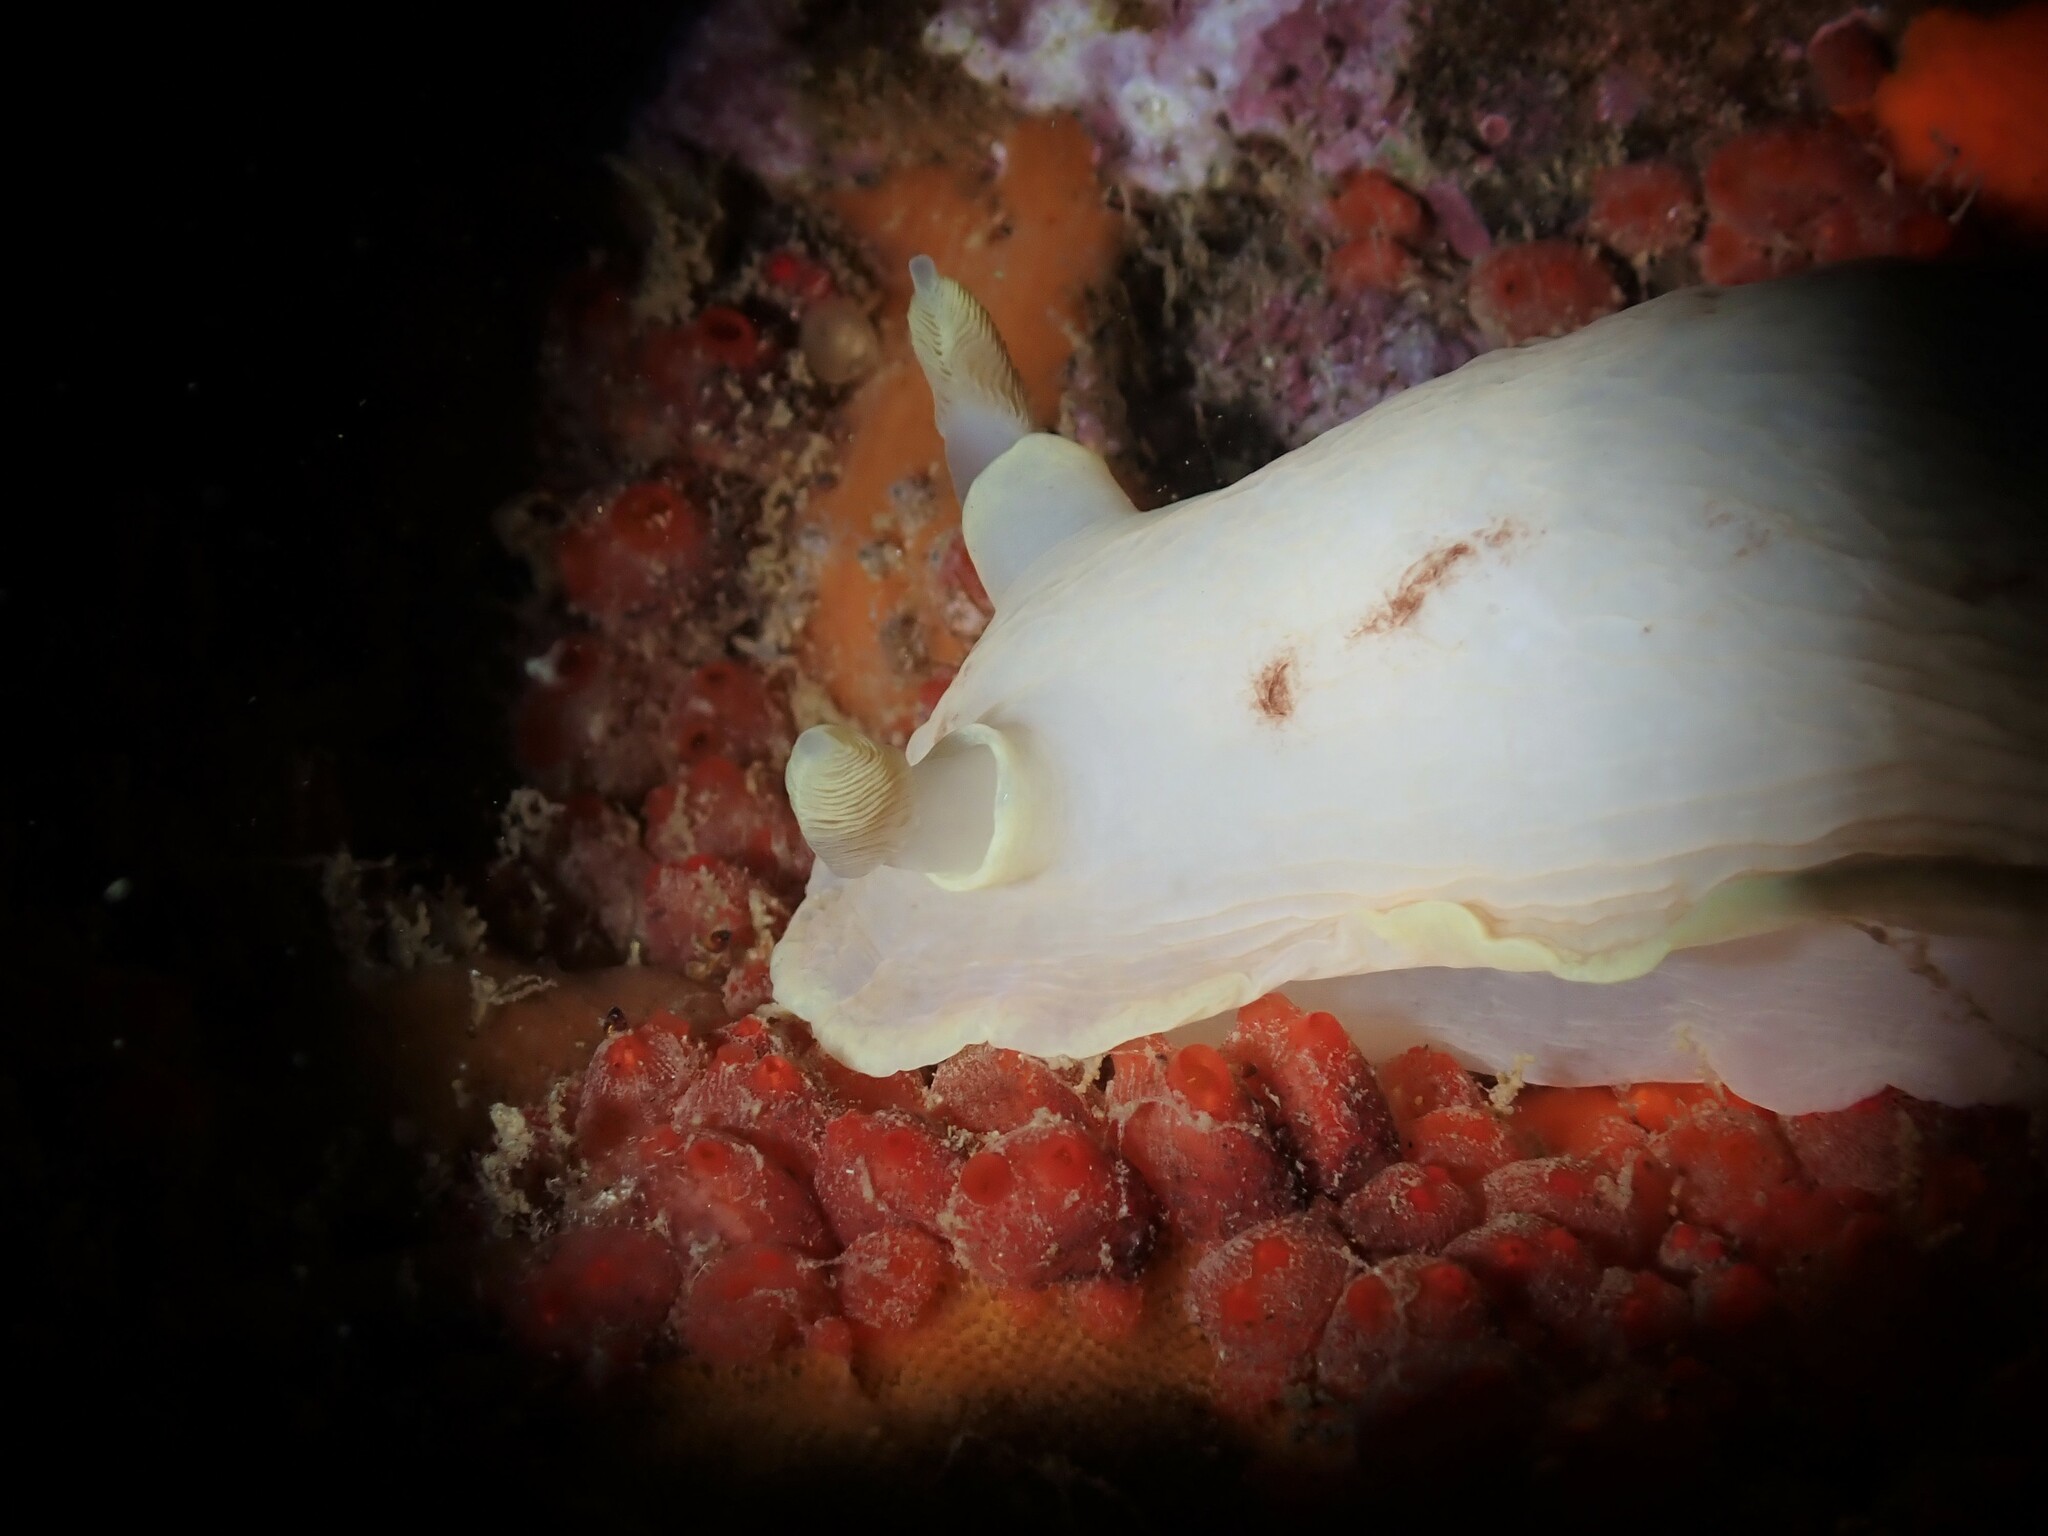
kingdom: Animalia
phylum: Mollusca
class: Gastropoda
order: Nudibranchia
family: Dorididae
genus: Aphelodoris
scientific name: Aphelodoris luctuosa
